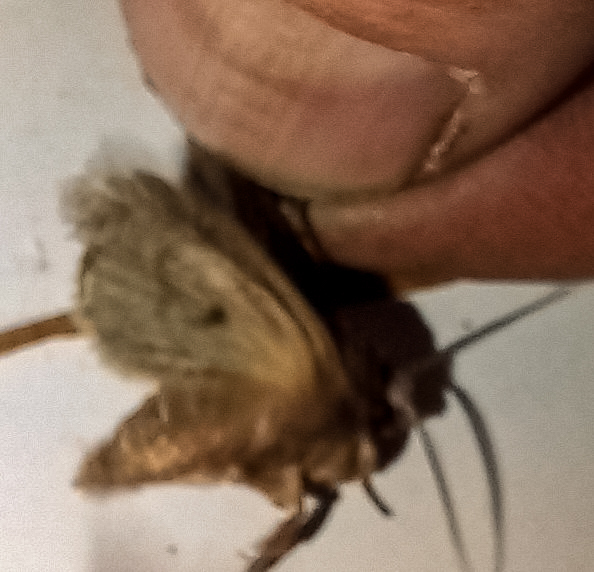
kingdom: Animalia
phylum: Arthropoda
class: Insecta
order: Lepidoptera
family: Noctuidae
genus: Ichneutica
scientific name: Ichneutica mutans
